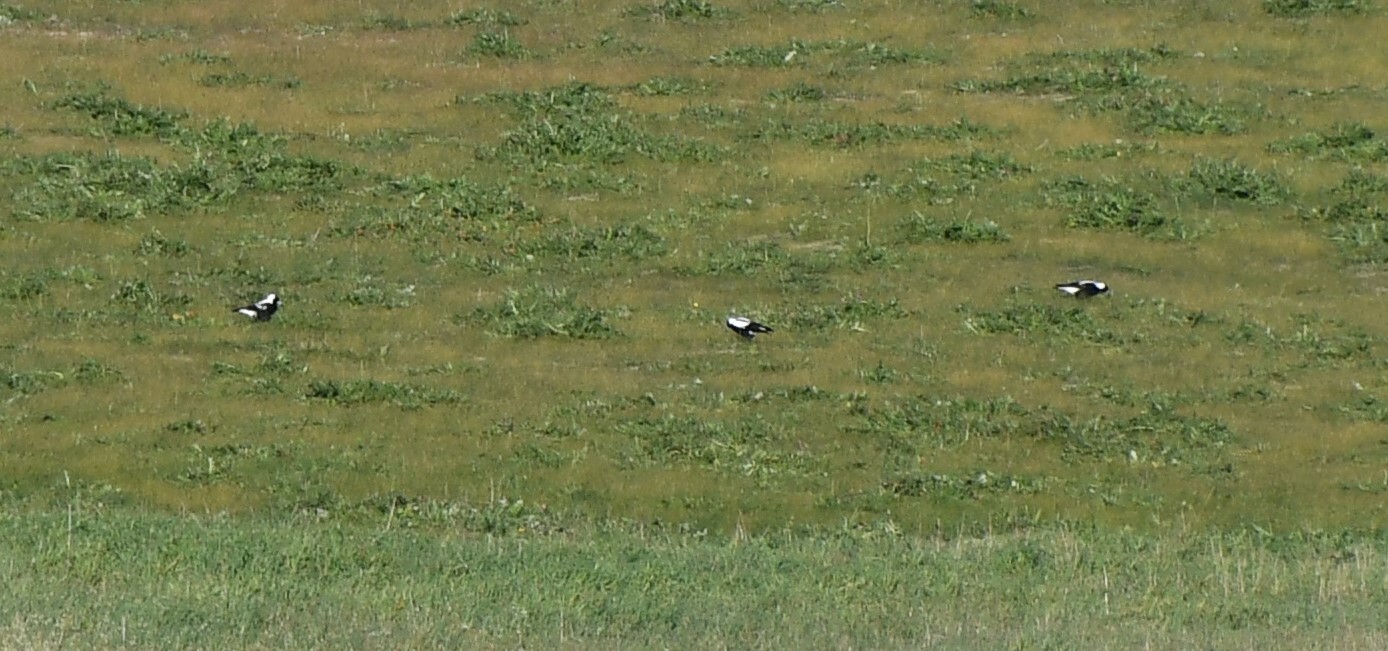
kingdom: Animalia
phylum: Chordata
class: Aves
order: Passeriformes
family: Cracticidae
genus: Gymnorhina
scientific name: Gymnorhina tibicen
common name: Australian magpie
